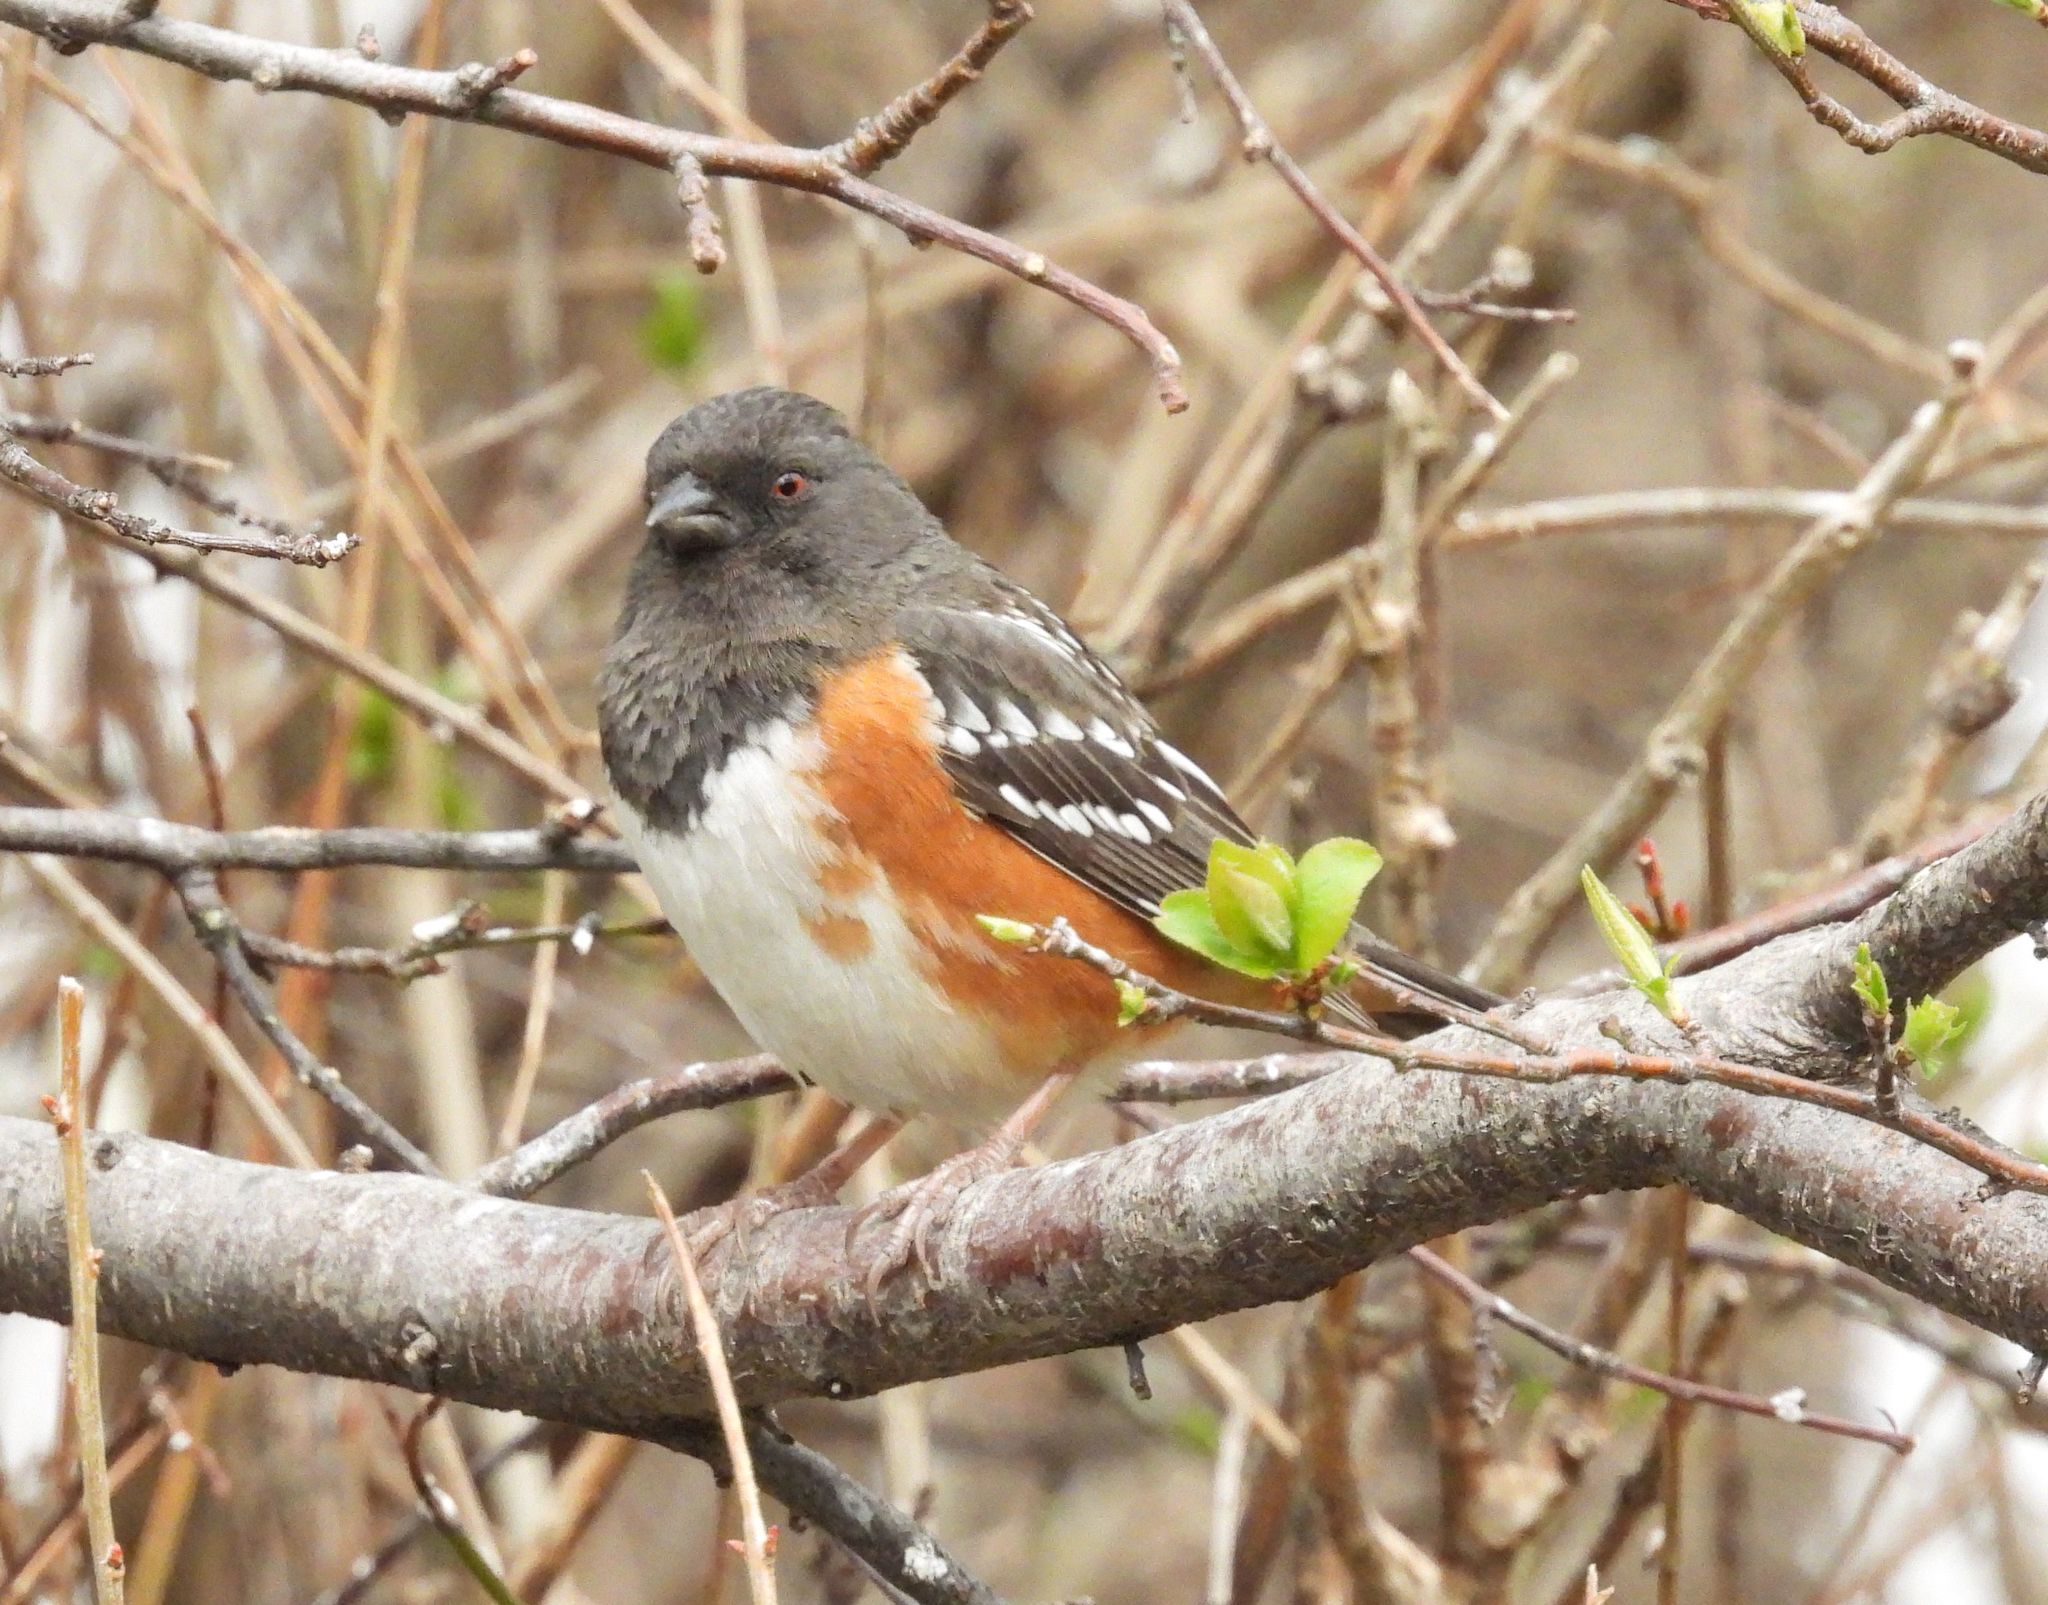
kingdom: Animalia
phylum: Chordata
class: Aves
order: Passeriformes
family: Passerellidae
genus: Pipilo
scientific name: Pipilo maculatus
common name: Spotted towhee
